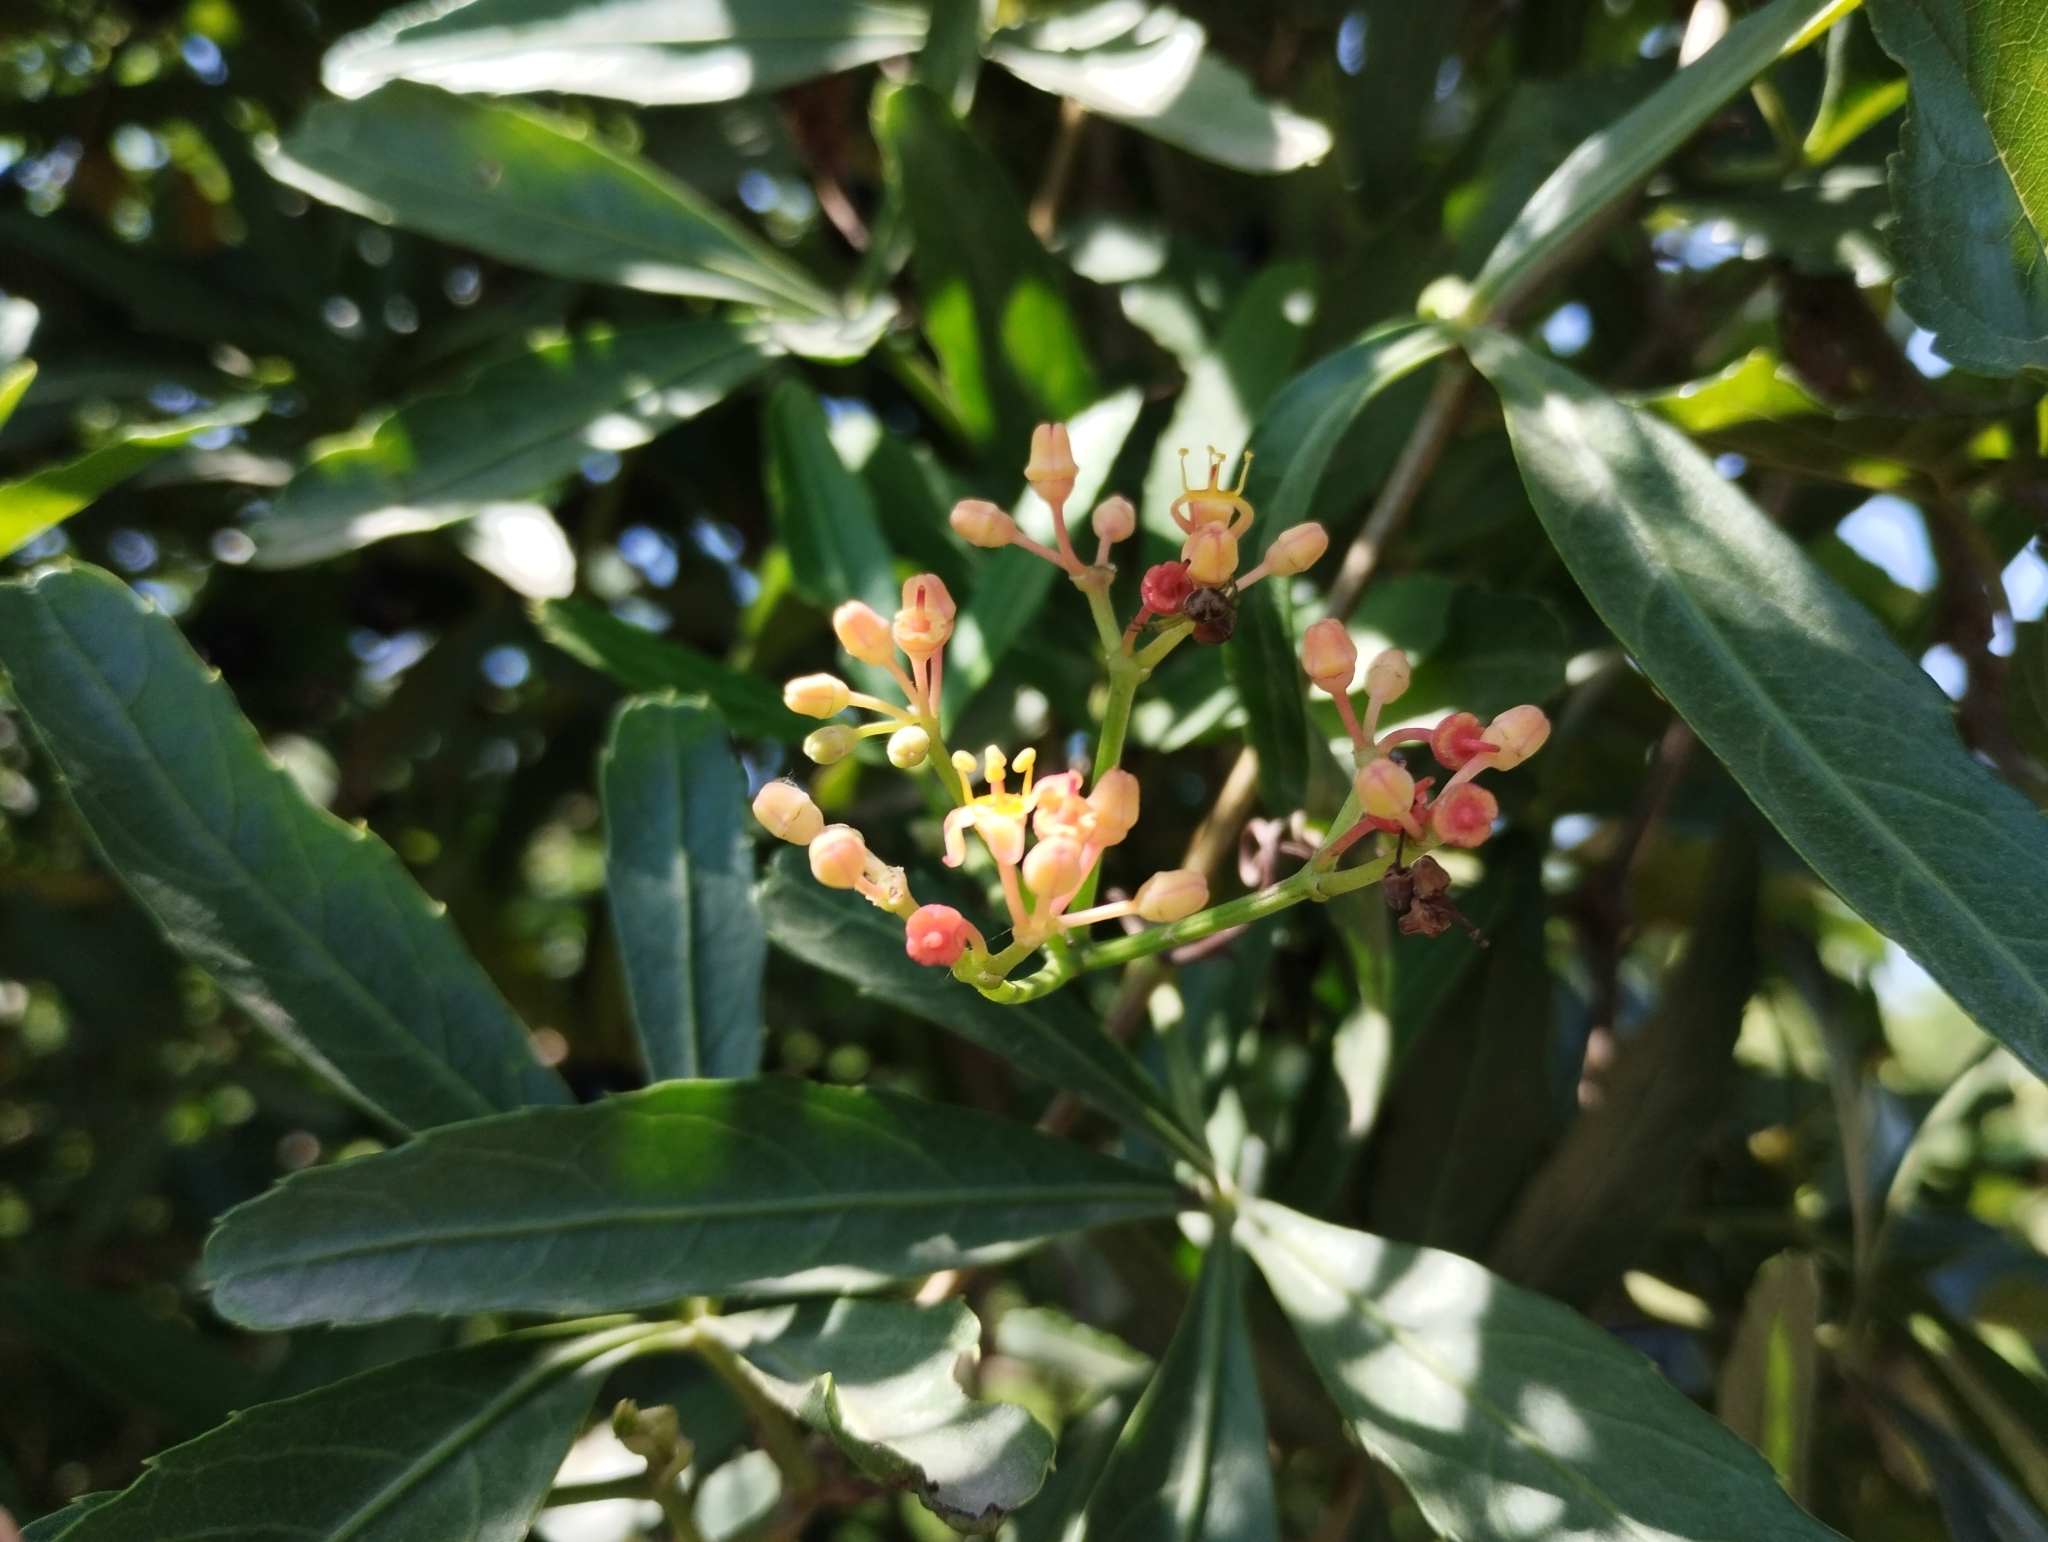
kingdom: Plantae
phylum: Tracheophyta
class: Magnoliopsida
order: Vitales
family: Vitaceae
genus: Cissus
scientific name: Cissus palmata
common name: Grape
